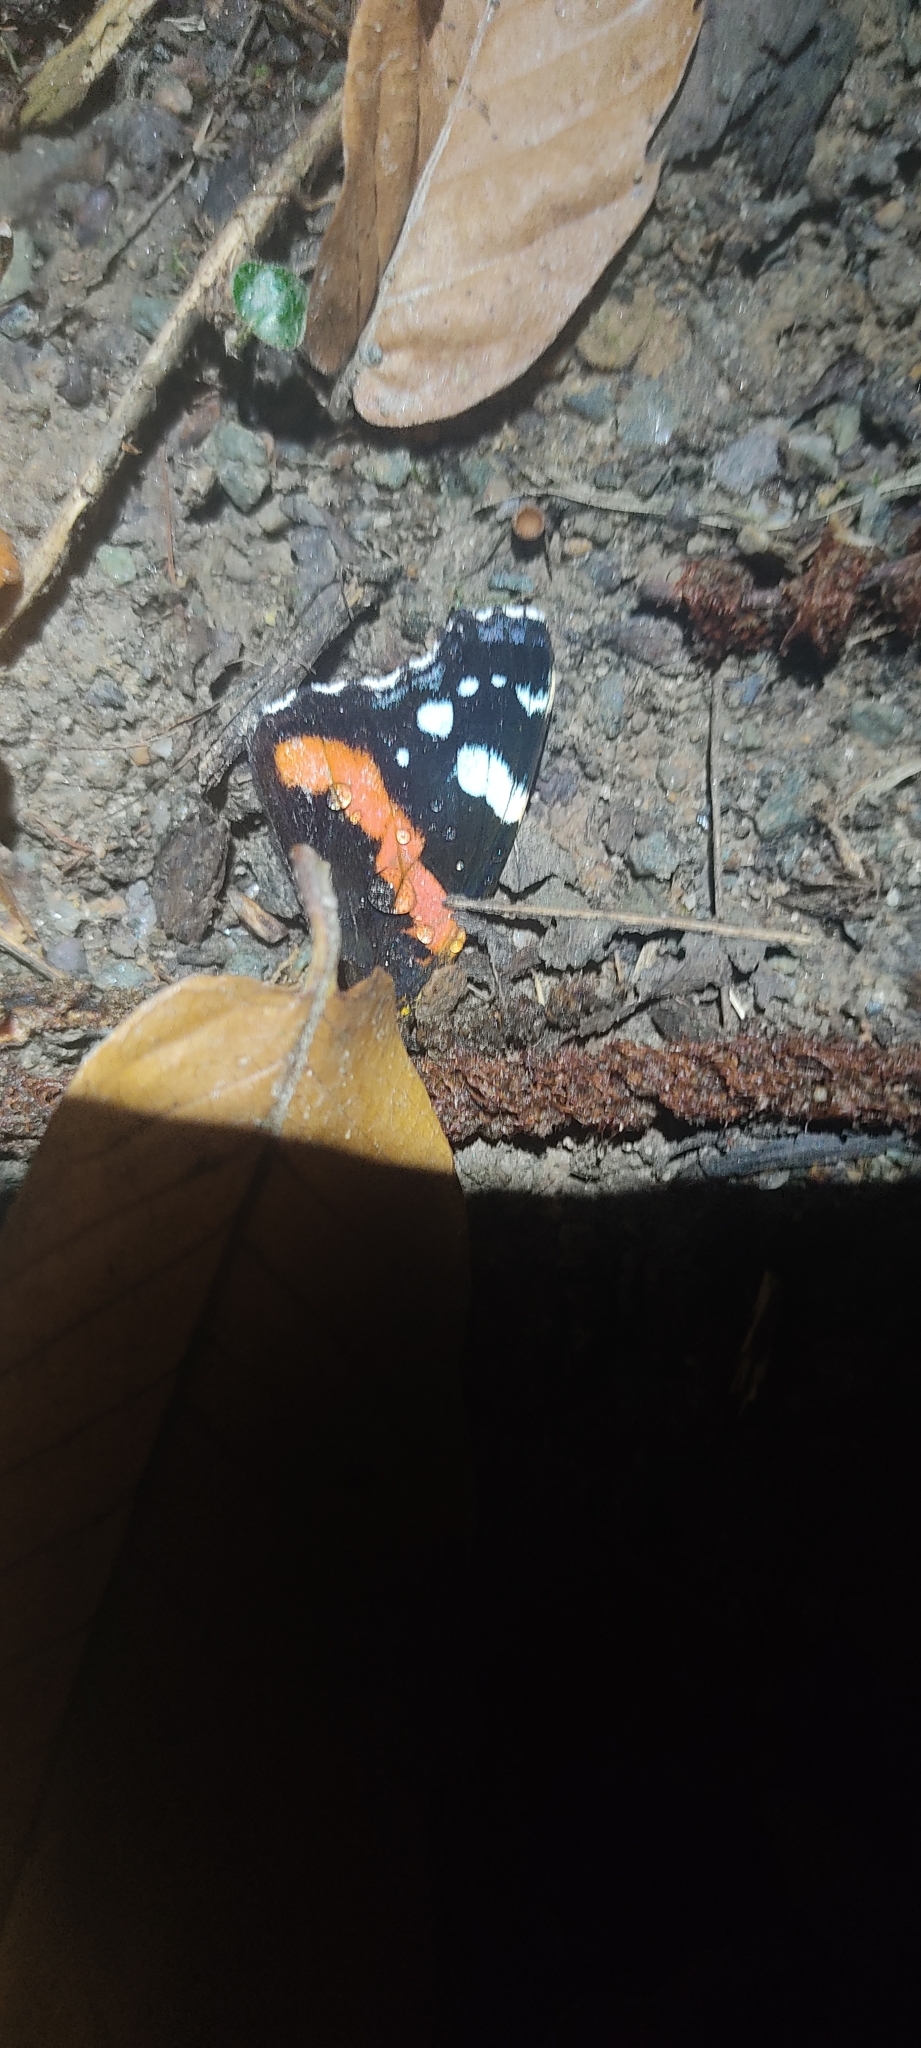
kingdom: Animalia
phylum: Arthropoda
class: Insecta
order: Lepidoptera
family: Nymphalidae
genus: Vanessa
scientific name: Vanessa atalanta
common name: Red admiral
